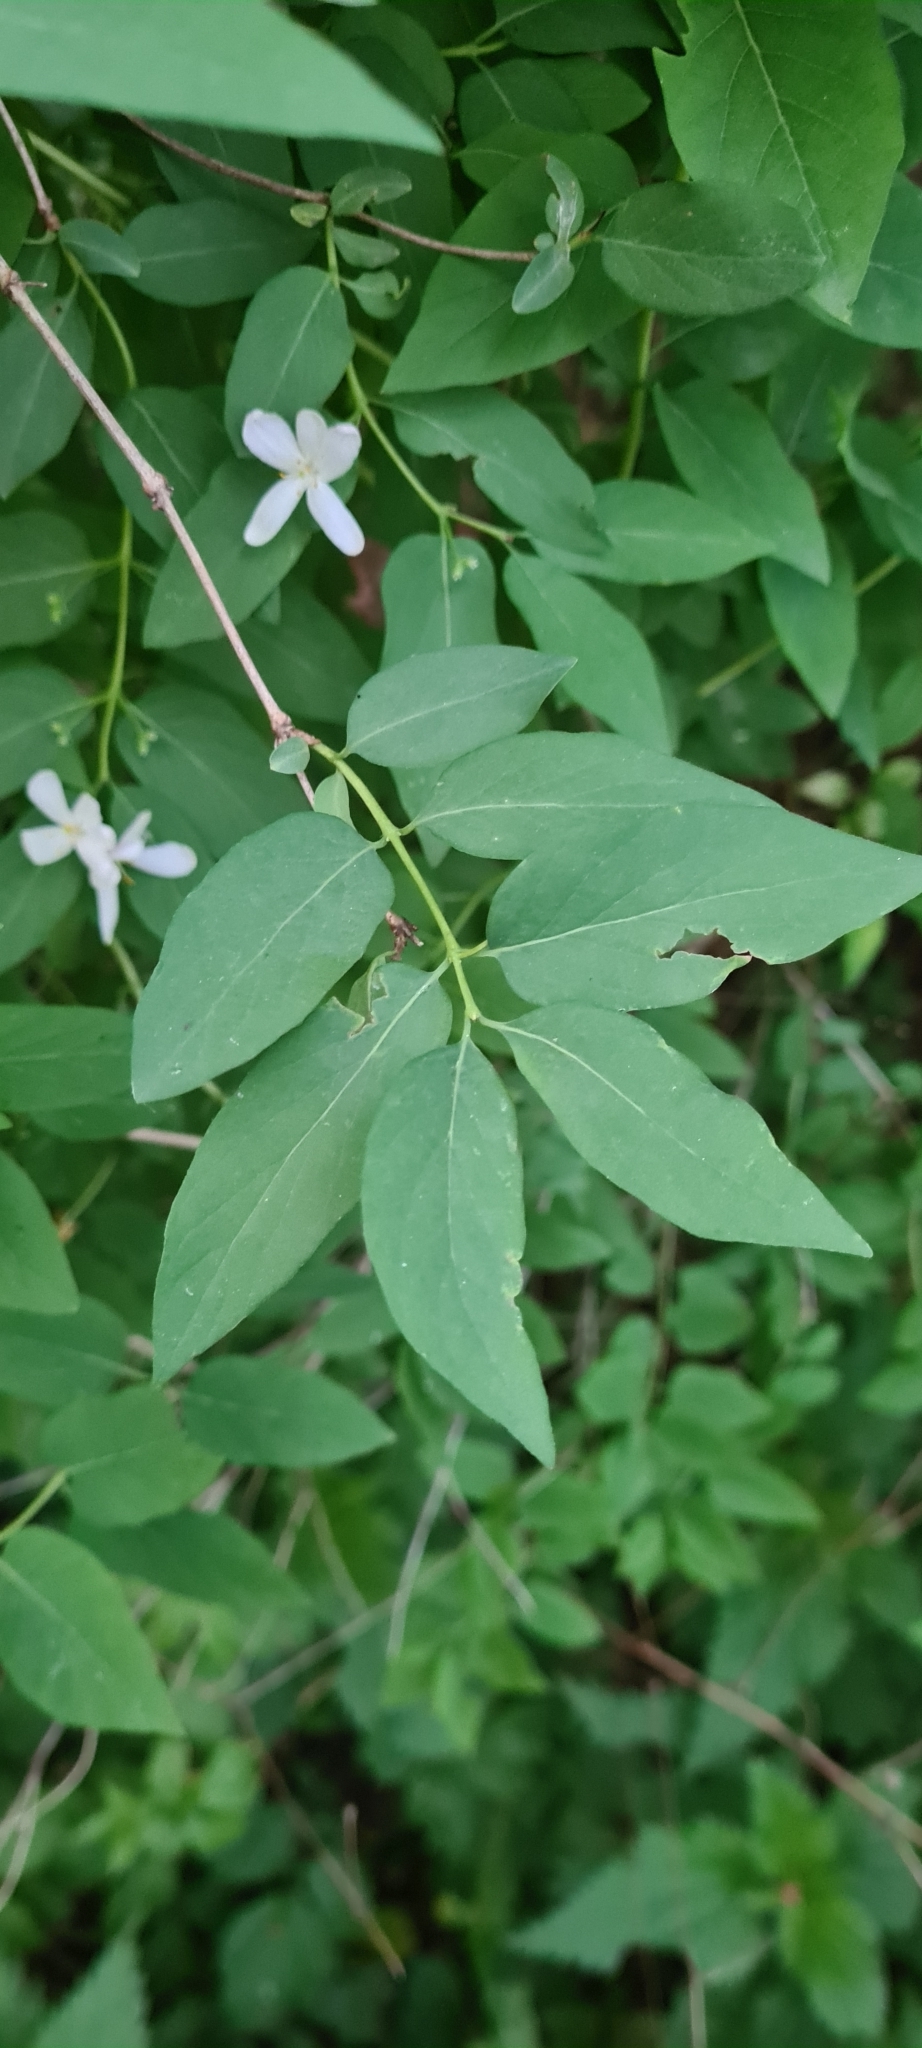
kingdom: Plantae
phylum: Tracheophyta
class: Magnoliopsida
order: Dipsacales
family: Caprifoliaceae
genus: Lonicera
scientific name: Lonicera tatarica
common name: Tatarian honeysuckle
